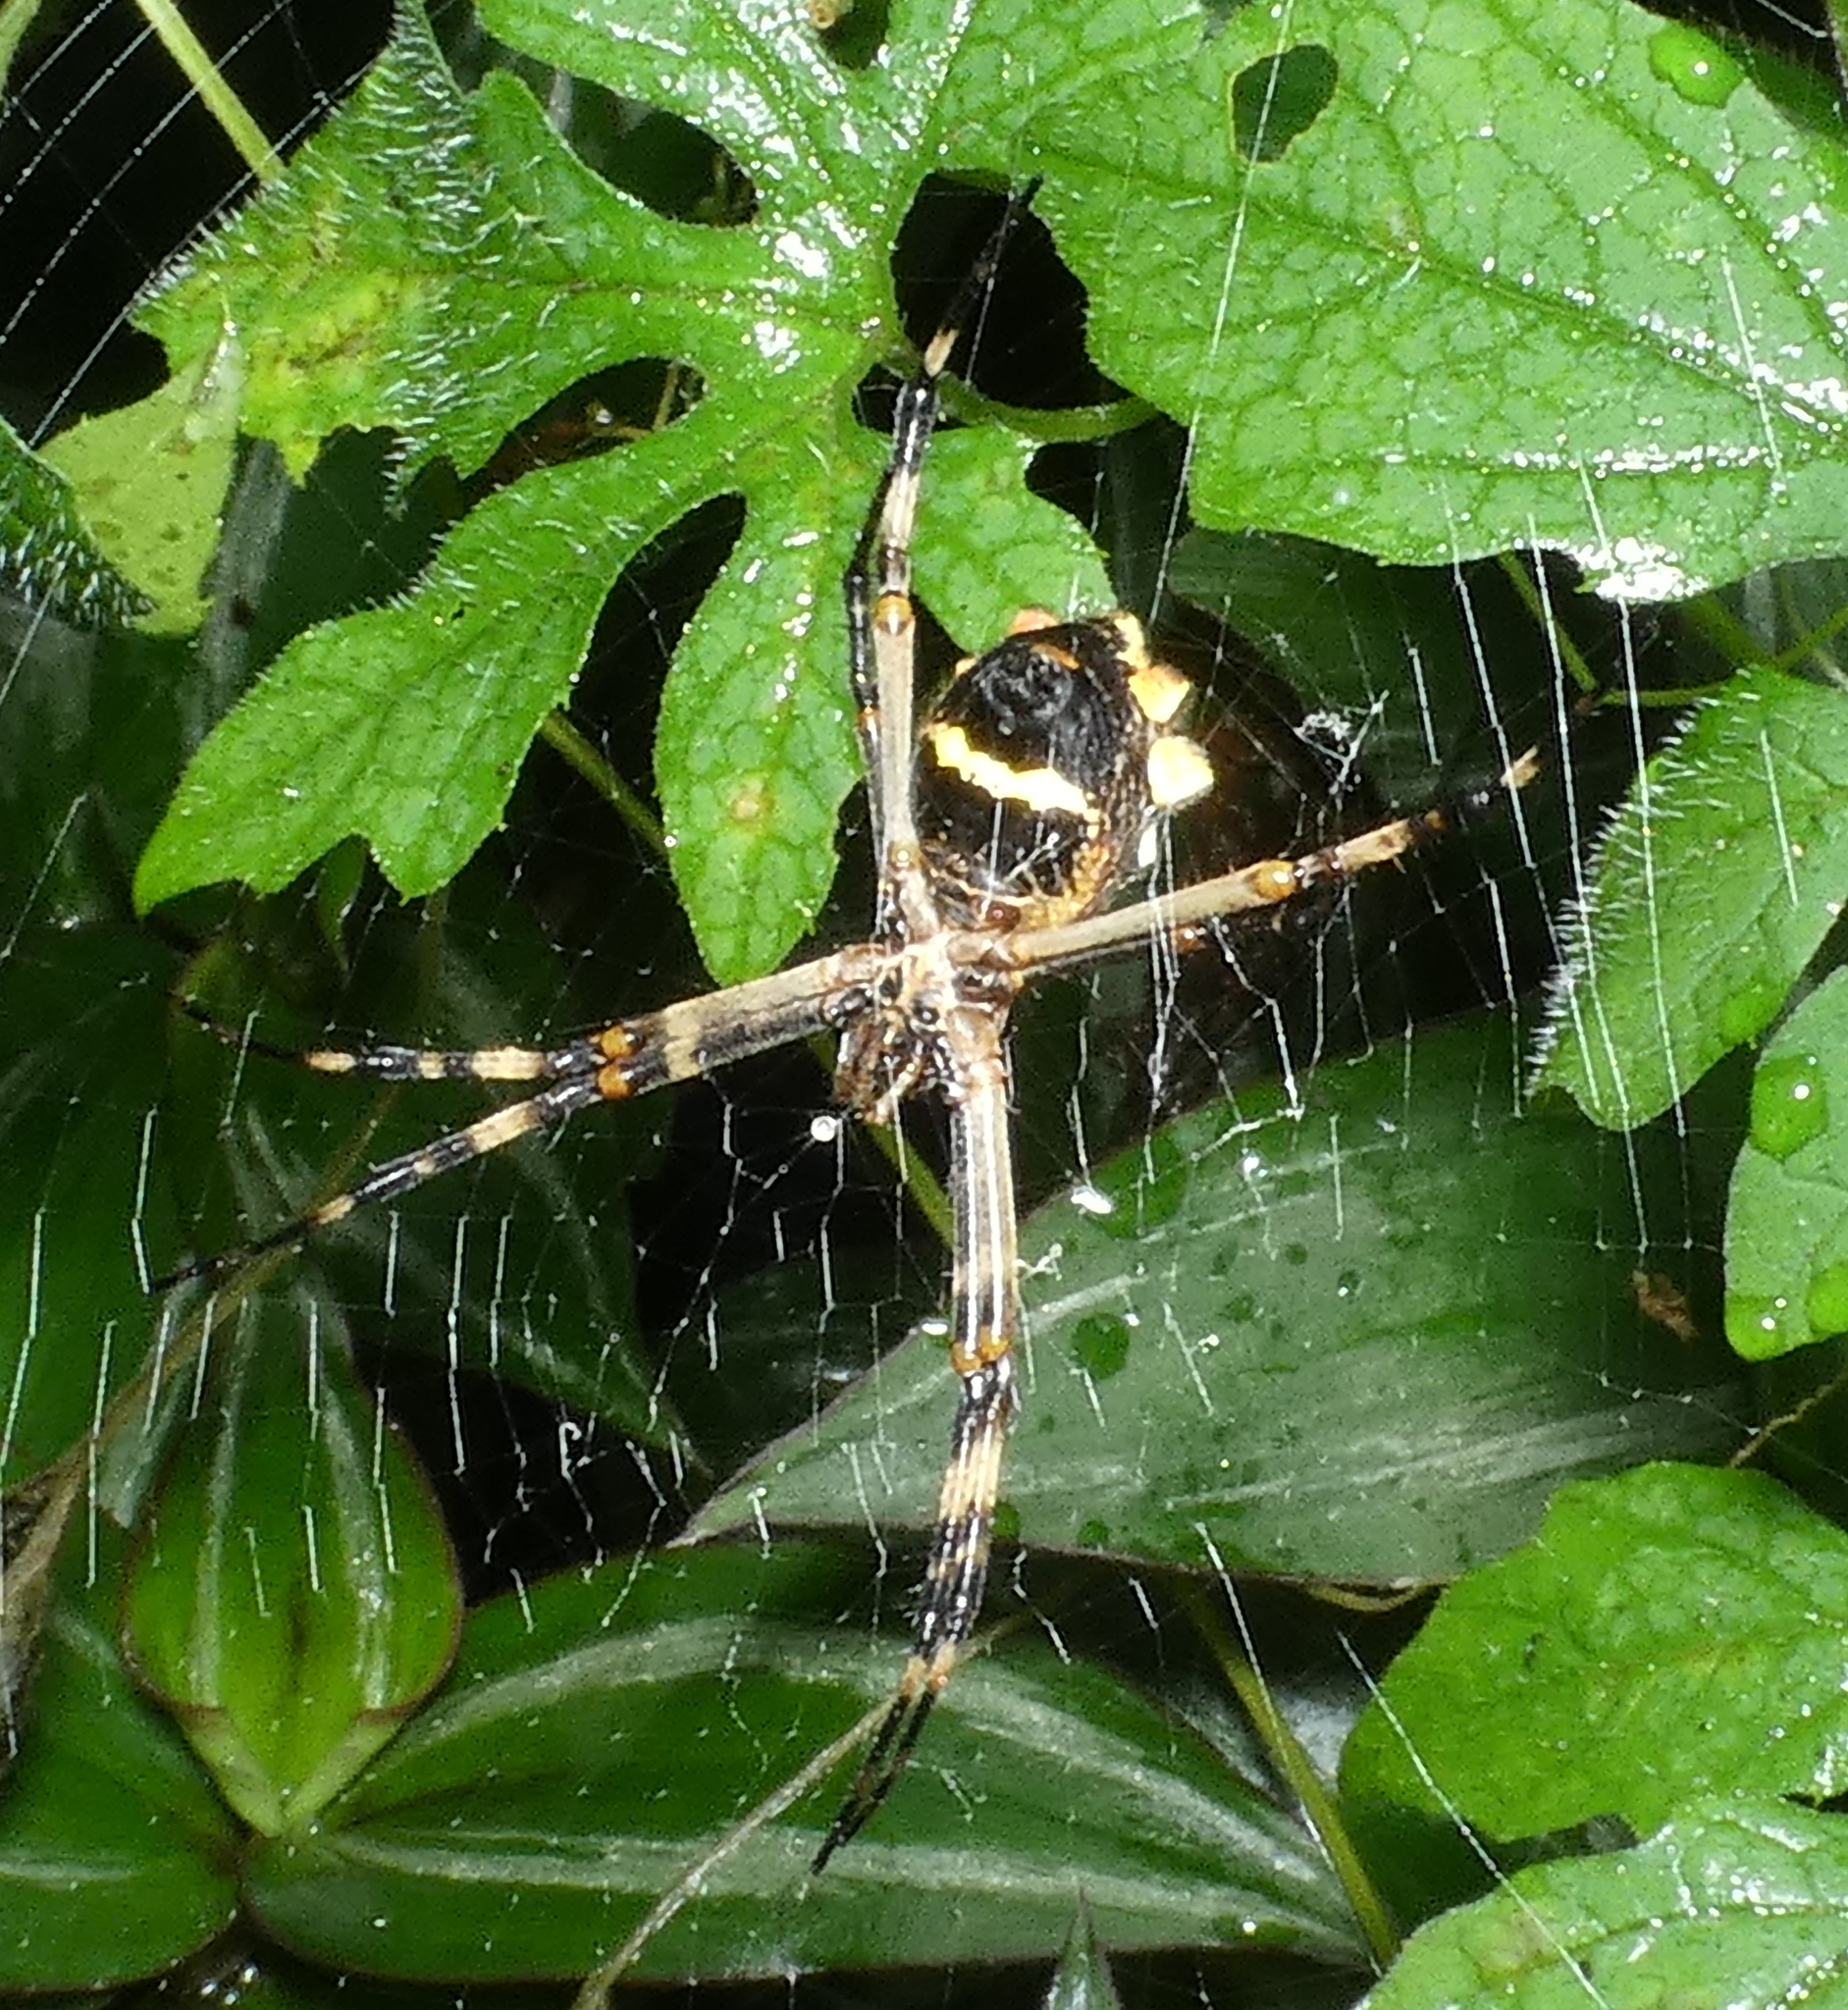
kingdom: Animalia
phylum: Arthropoda
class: Arachnida
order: Araneae
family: Araneidae
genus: Argiope
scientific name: Argiope argentata
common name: Orb weavers
